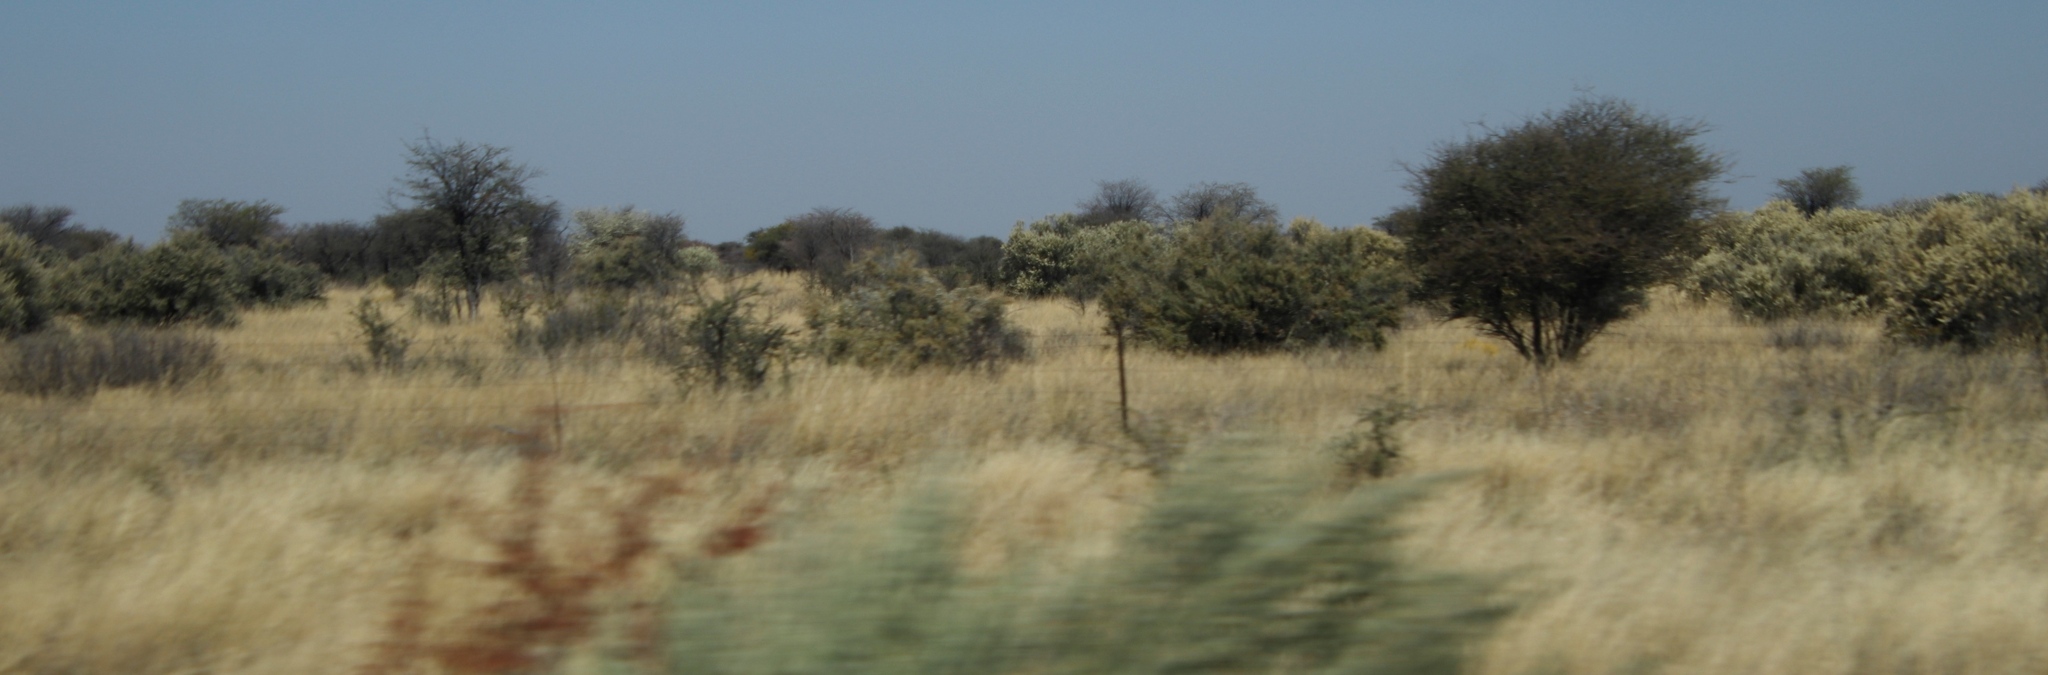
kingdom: Plantae
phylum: Tracheophyta
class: Magnoliopsida
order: Fabales
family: Fabaceae
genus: Senegalia
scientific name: Senegalia mellifera
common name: Hookthorn
